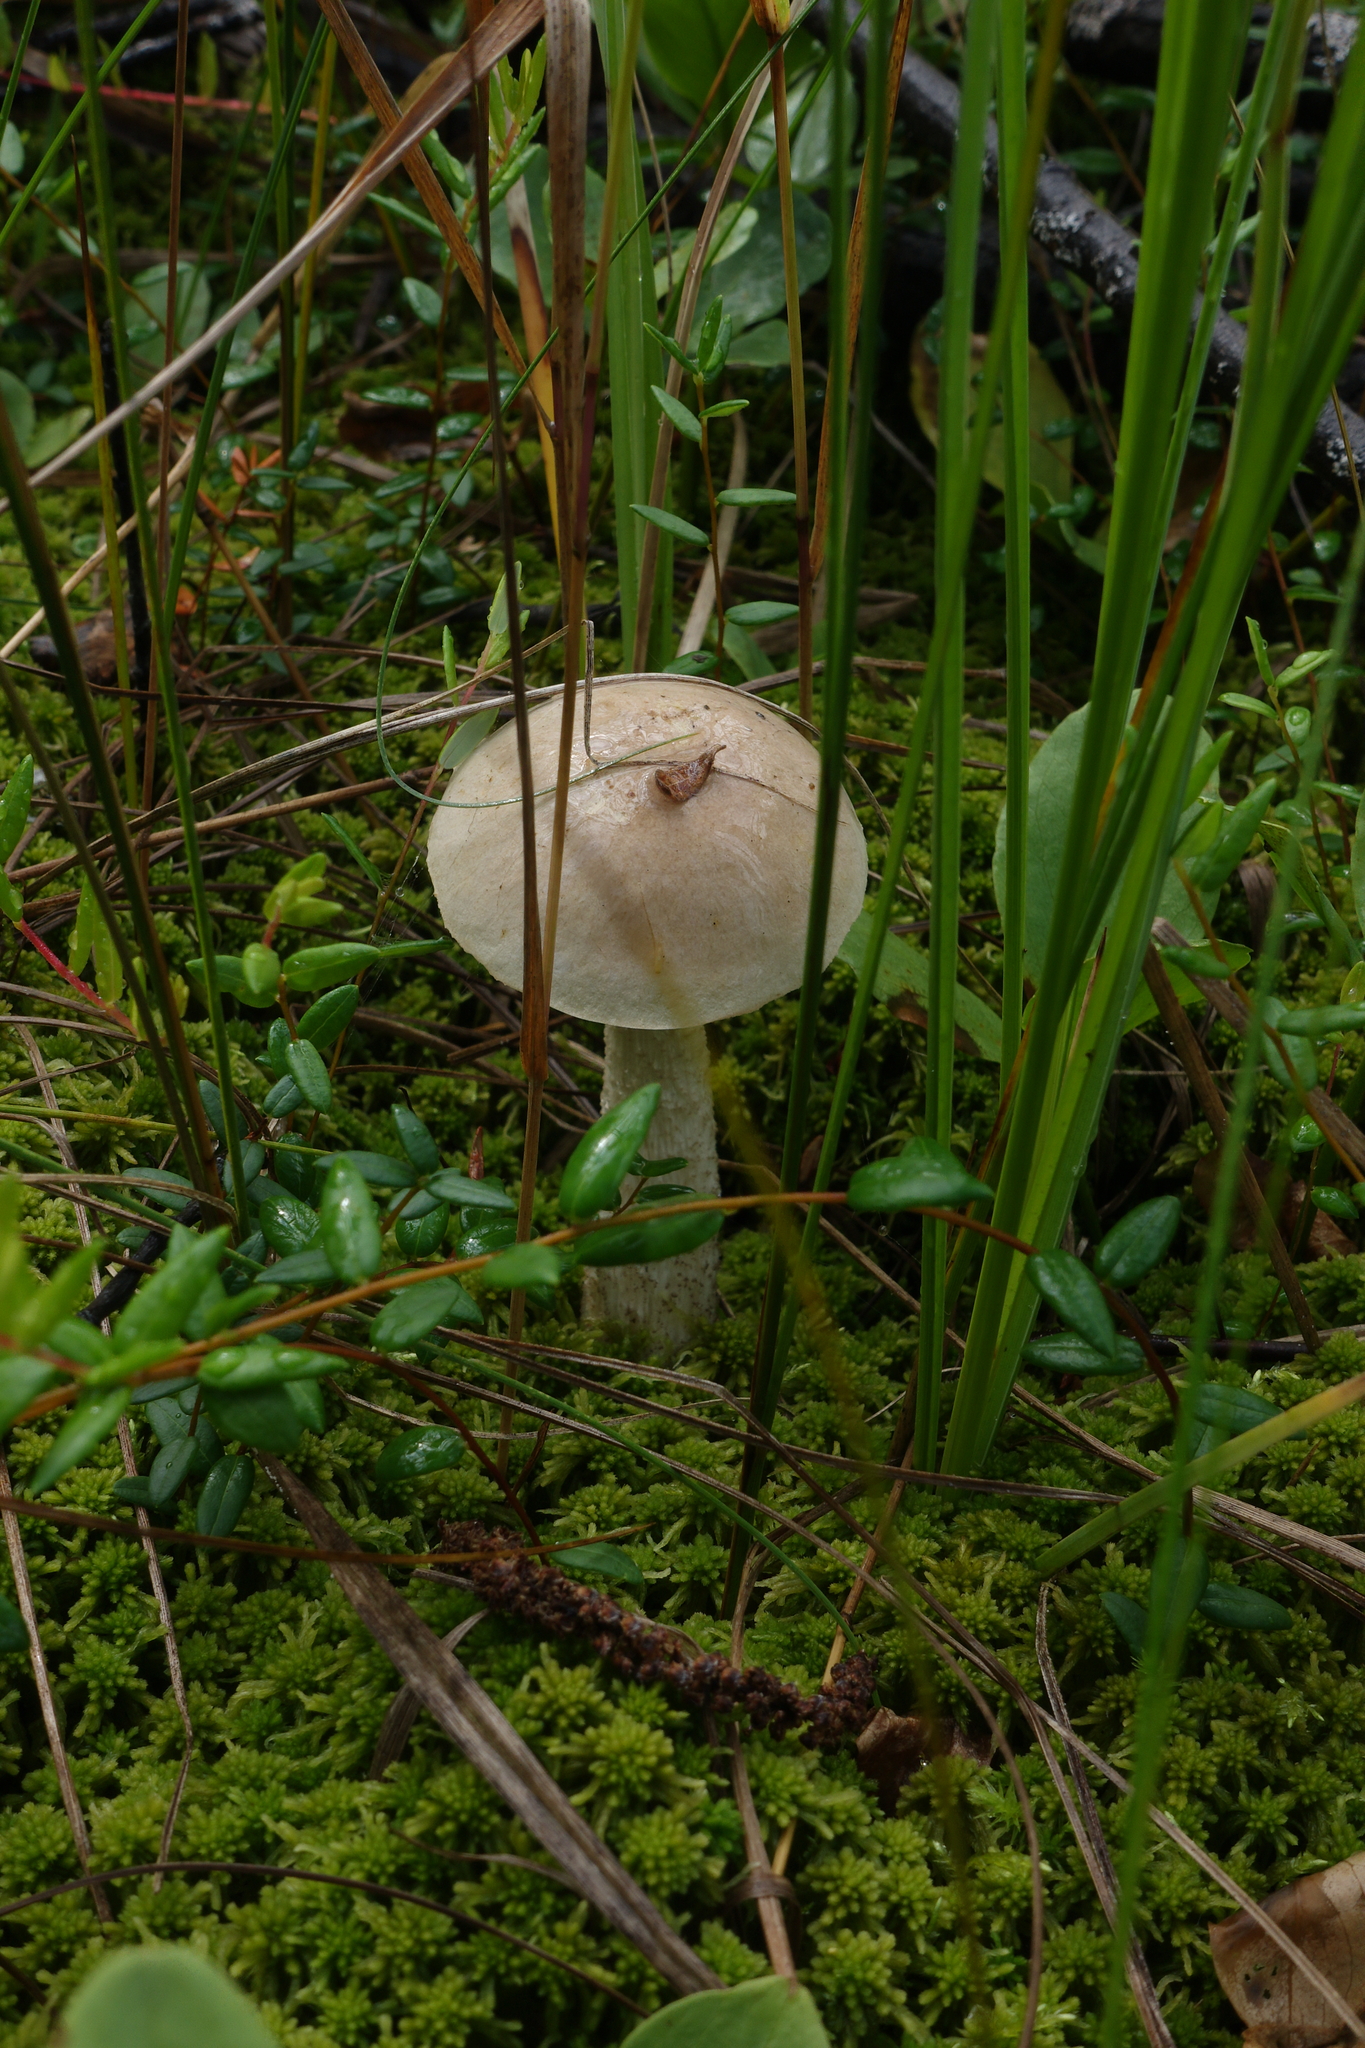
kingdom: Fungi
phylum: Basidiomycota
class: Agaricomycetes
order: Boletales
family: Boletaceae
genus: Leccinum
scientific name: Leccinum holopus
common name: Ghost bolete
